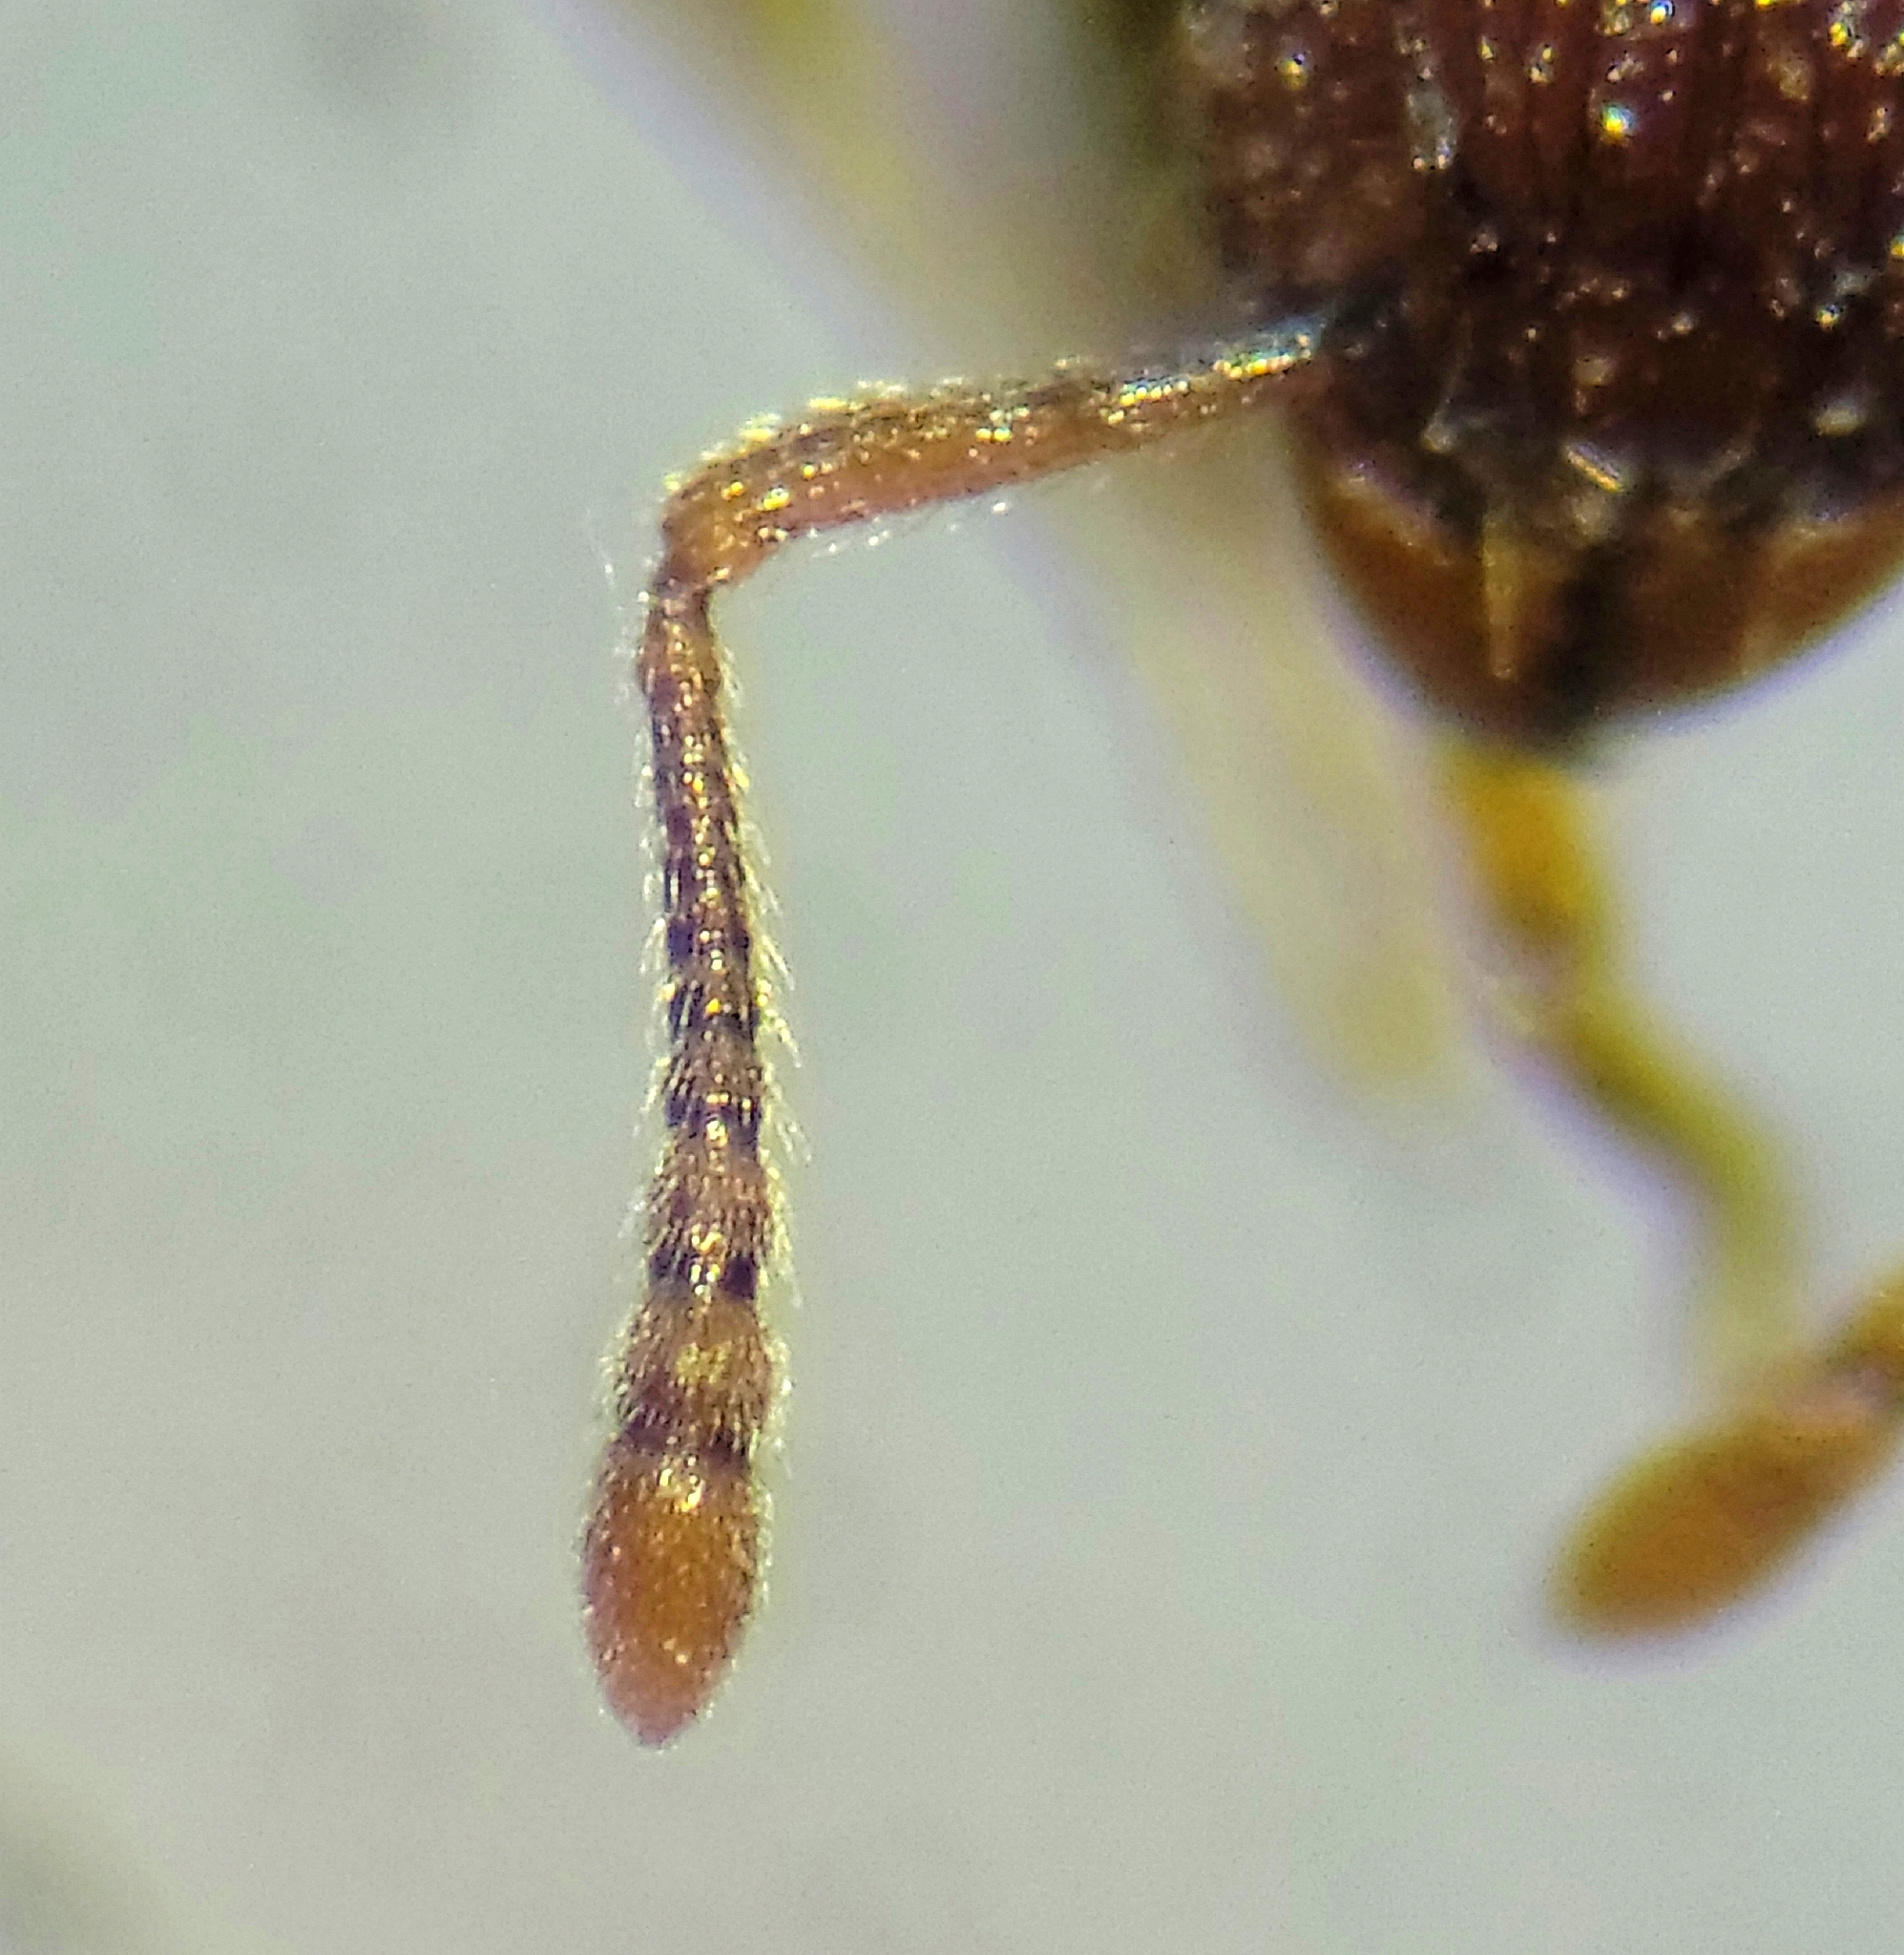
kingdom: Animalia
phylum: Arthropoda
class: Insecta
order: Hymenoptera
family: Formicidae
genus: Tetramorium
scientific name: Tetramorium bicarinatum
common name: Guinea ant
